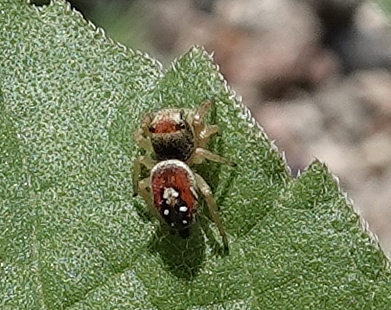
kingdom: Animalia
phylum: Arthropoda
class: Arachnida
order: Araneae
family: Salticidae
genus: Phidippus
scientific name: Phidippus apacheanus
